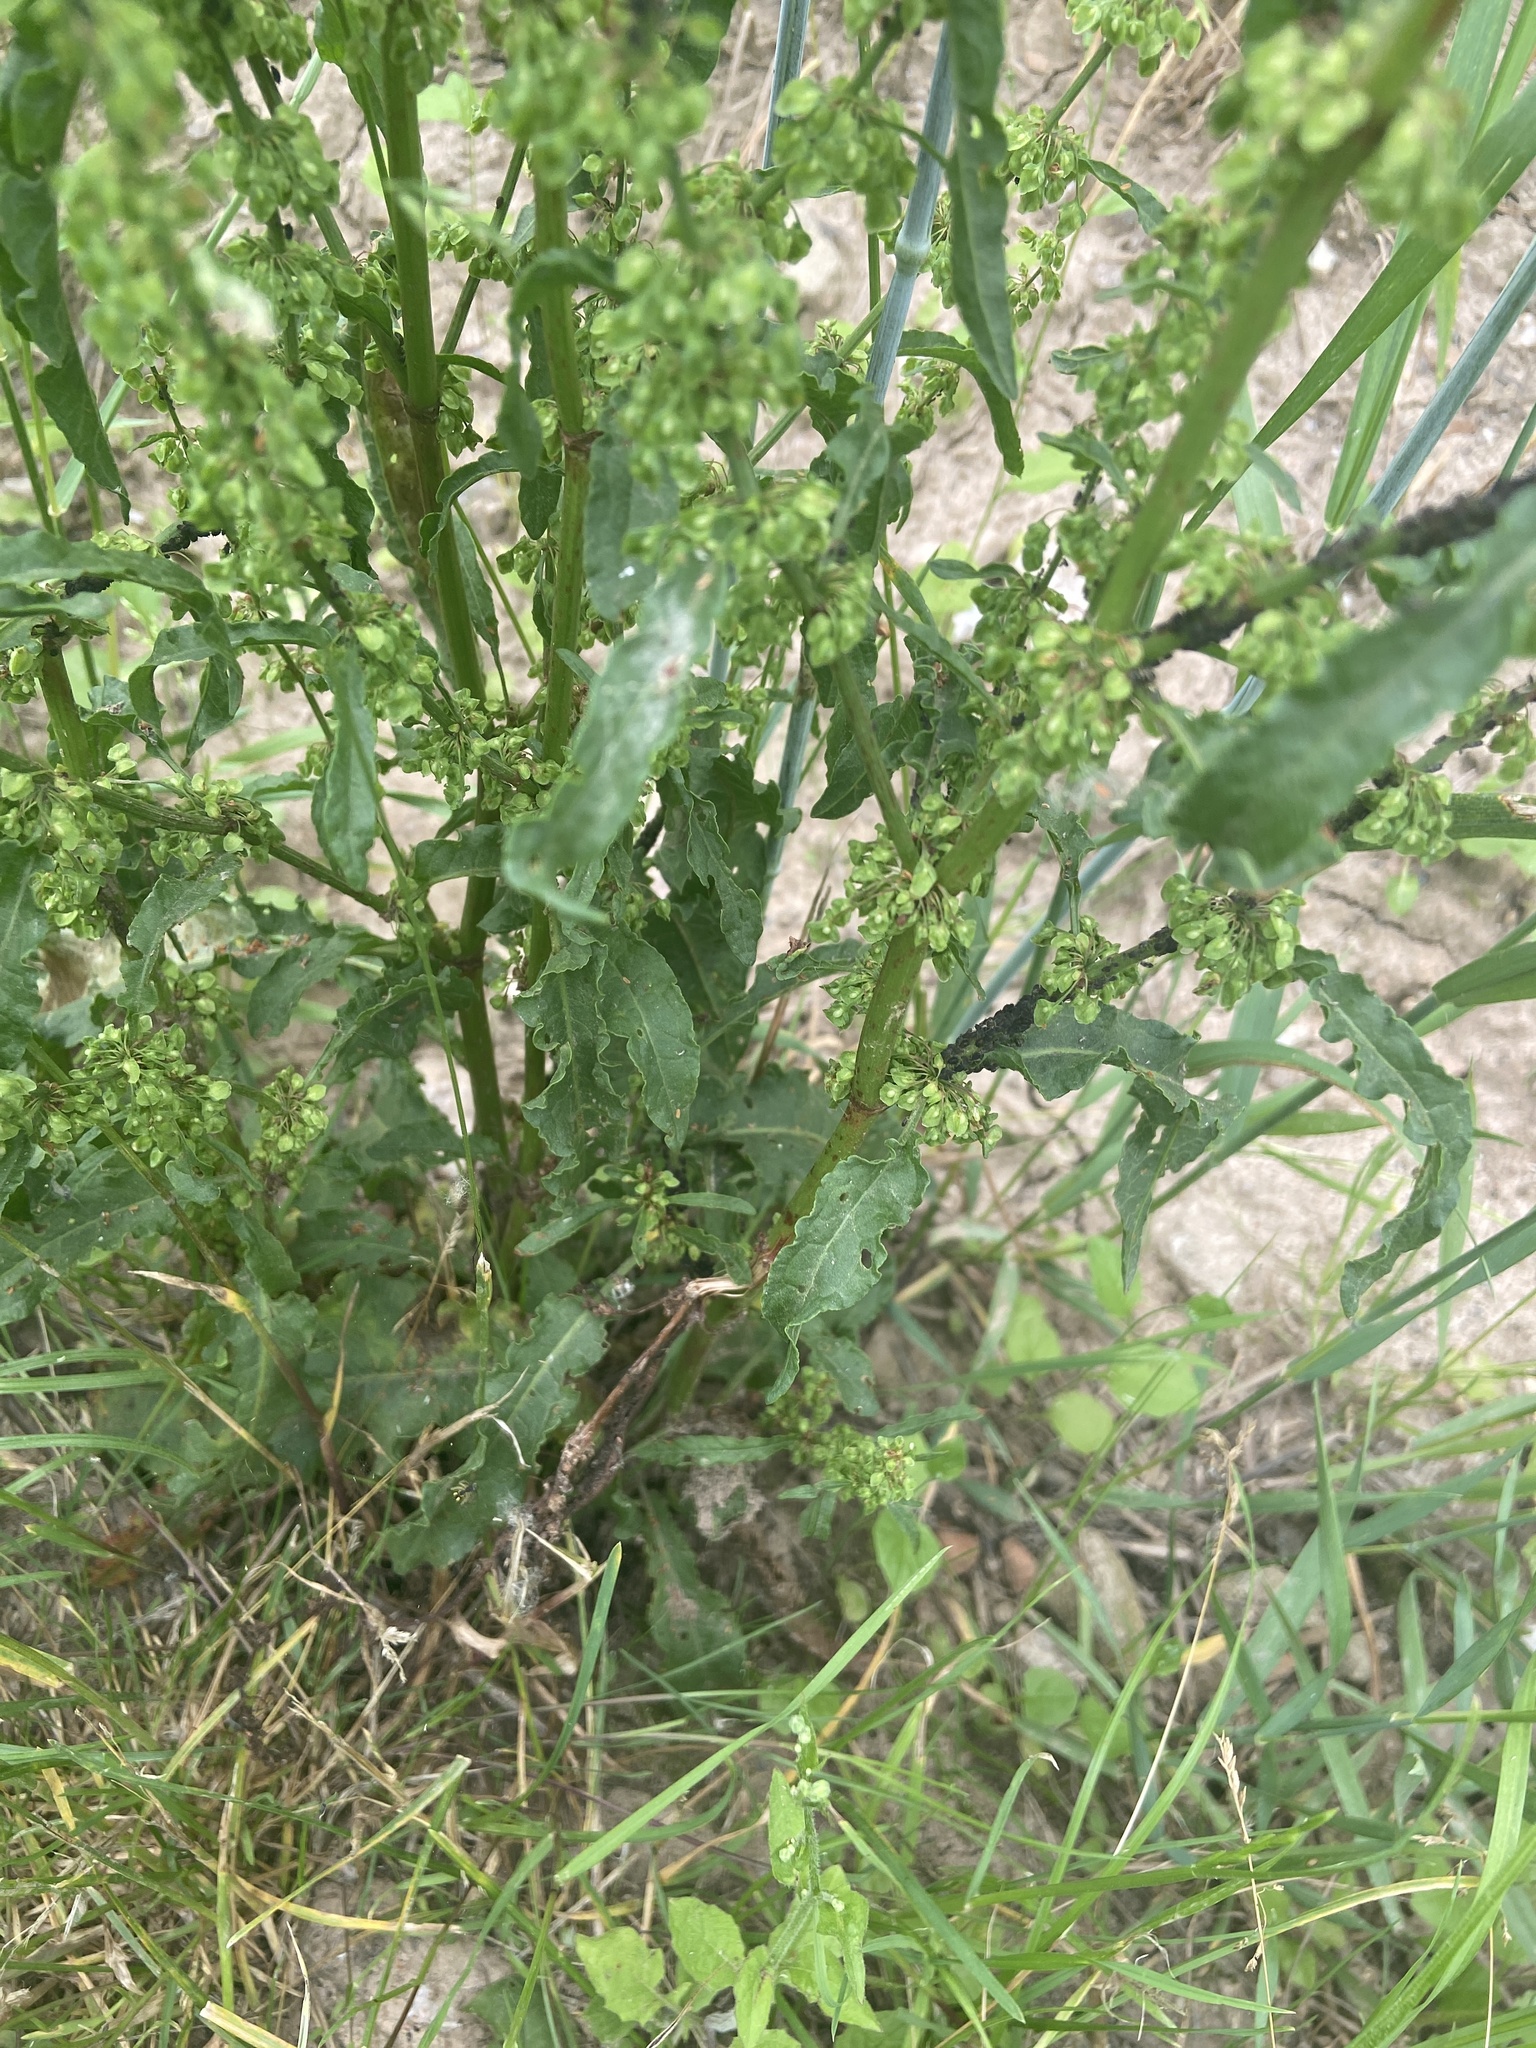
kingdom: Plantae
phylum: Tracheophyta
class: Magnoliopsida
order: Caryophyllales
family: Polygonaceae
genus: Rumex
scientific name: Rumex crispus
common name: Curled dock
